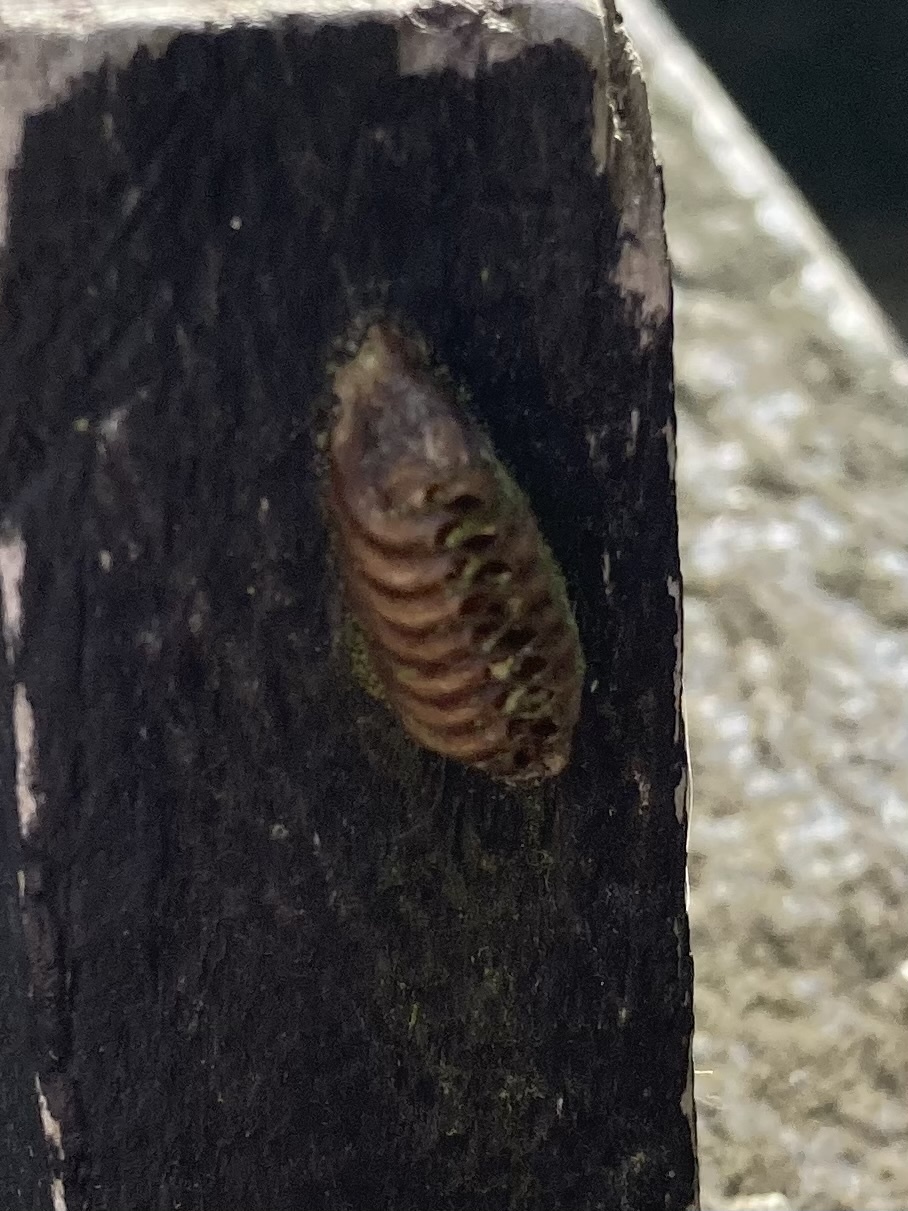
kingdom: Animalia
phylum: Arthropoda
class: Insecta
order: Mantodea
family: Mantidae
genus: Orthodera
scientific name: Orthodera novaezealandiae
